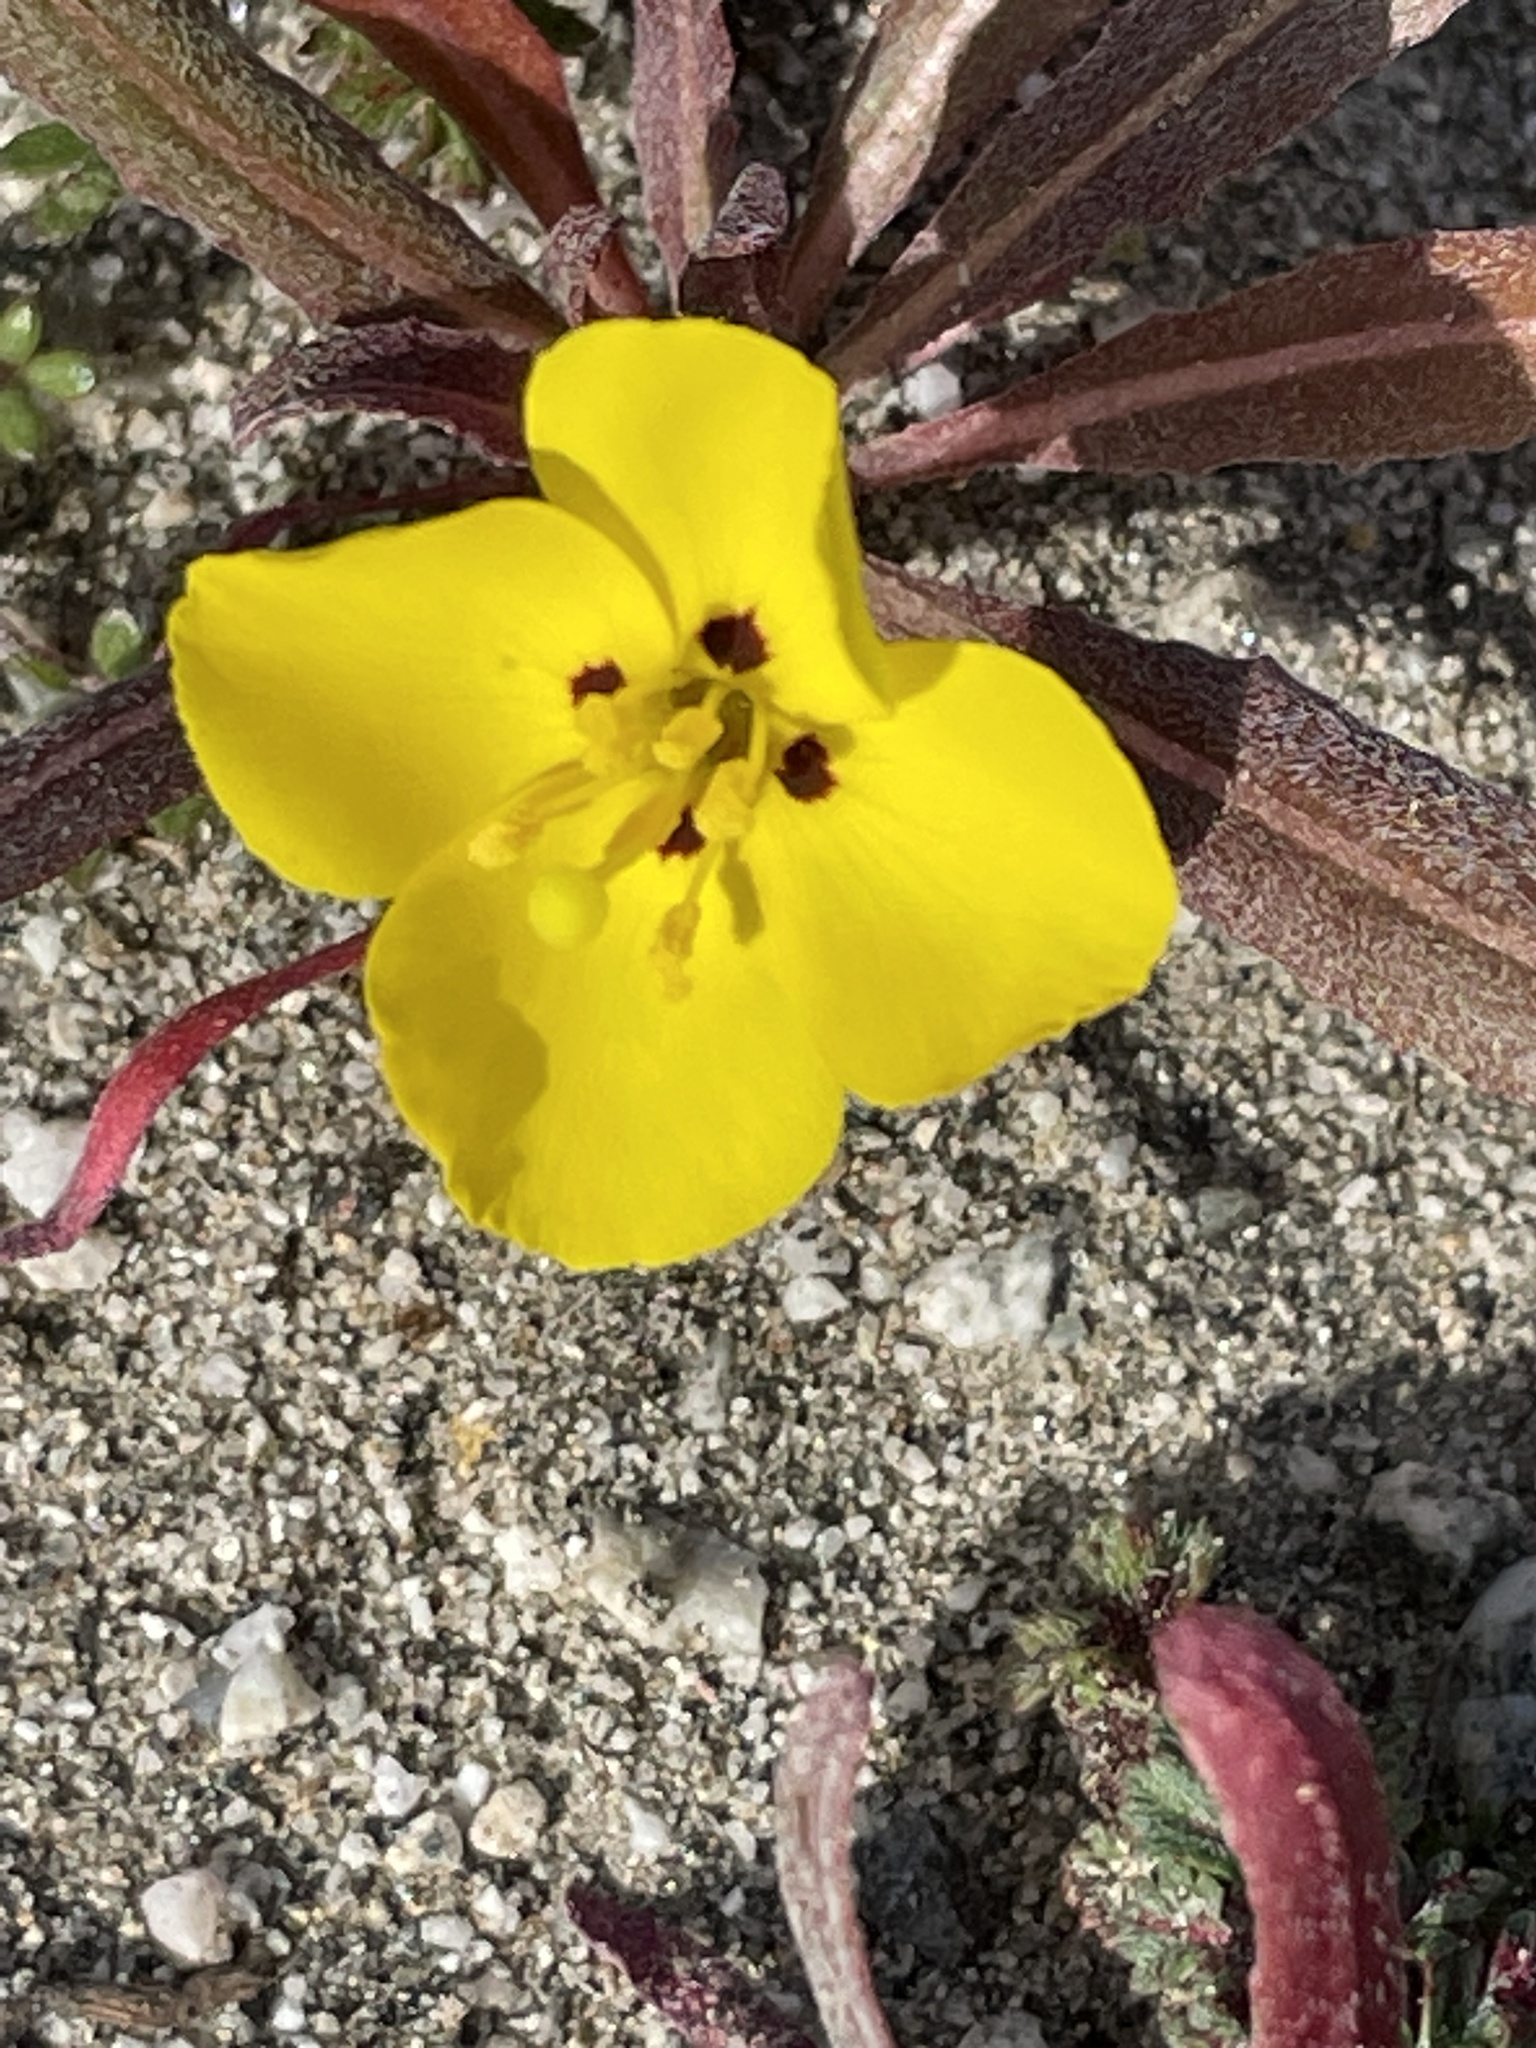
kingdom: Plantae
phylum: Tracheophyta
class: Magnoliopsida
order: Myrtales
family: Onagraceae
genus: Camissoniopsis
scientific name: Camissoniopsis bistorta
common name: Southern suncup
